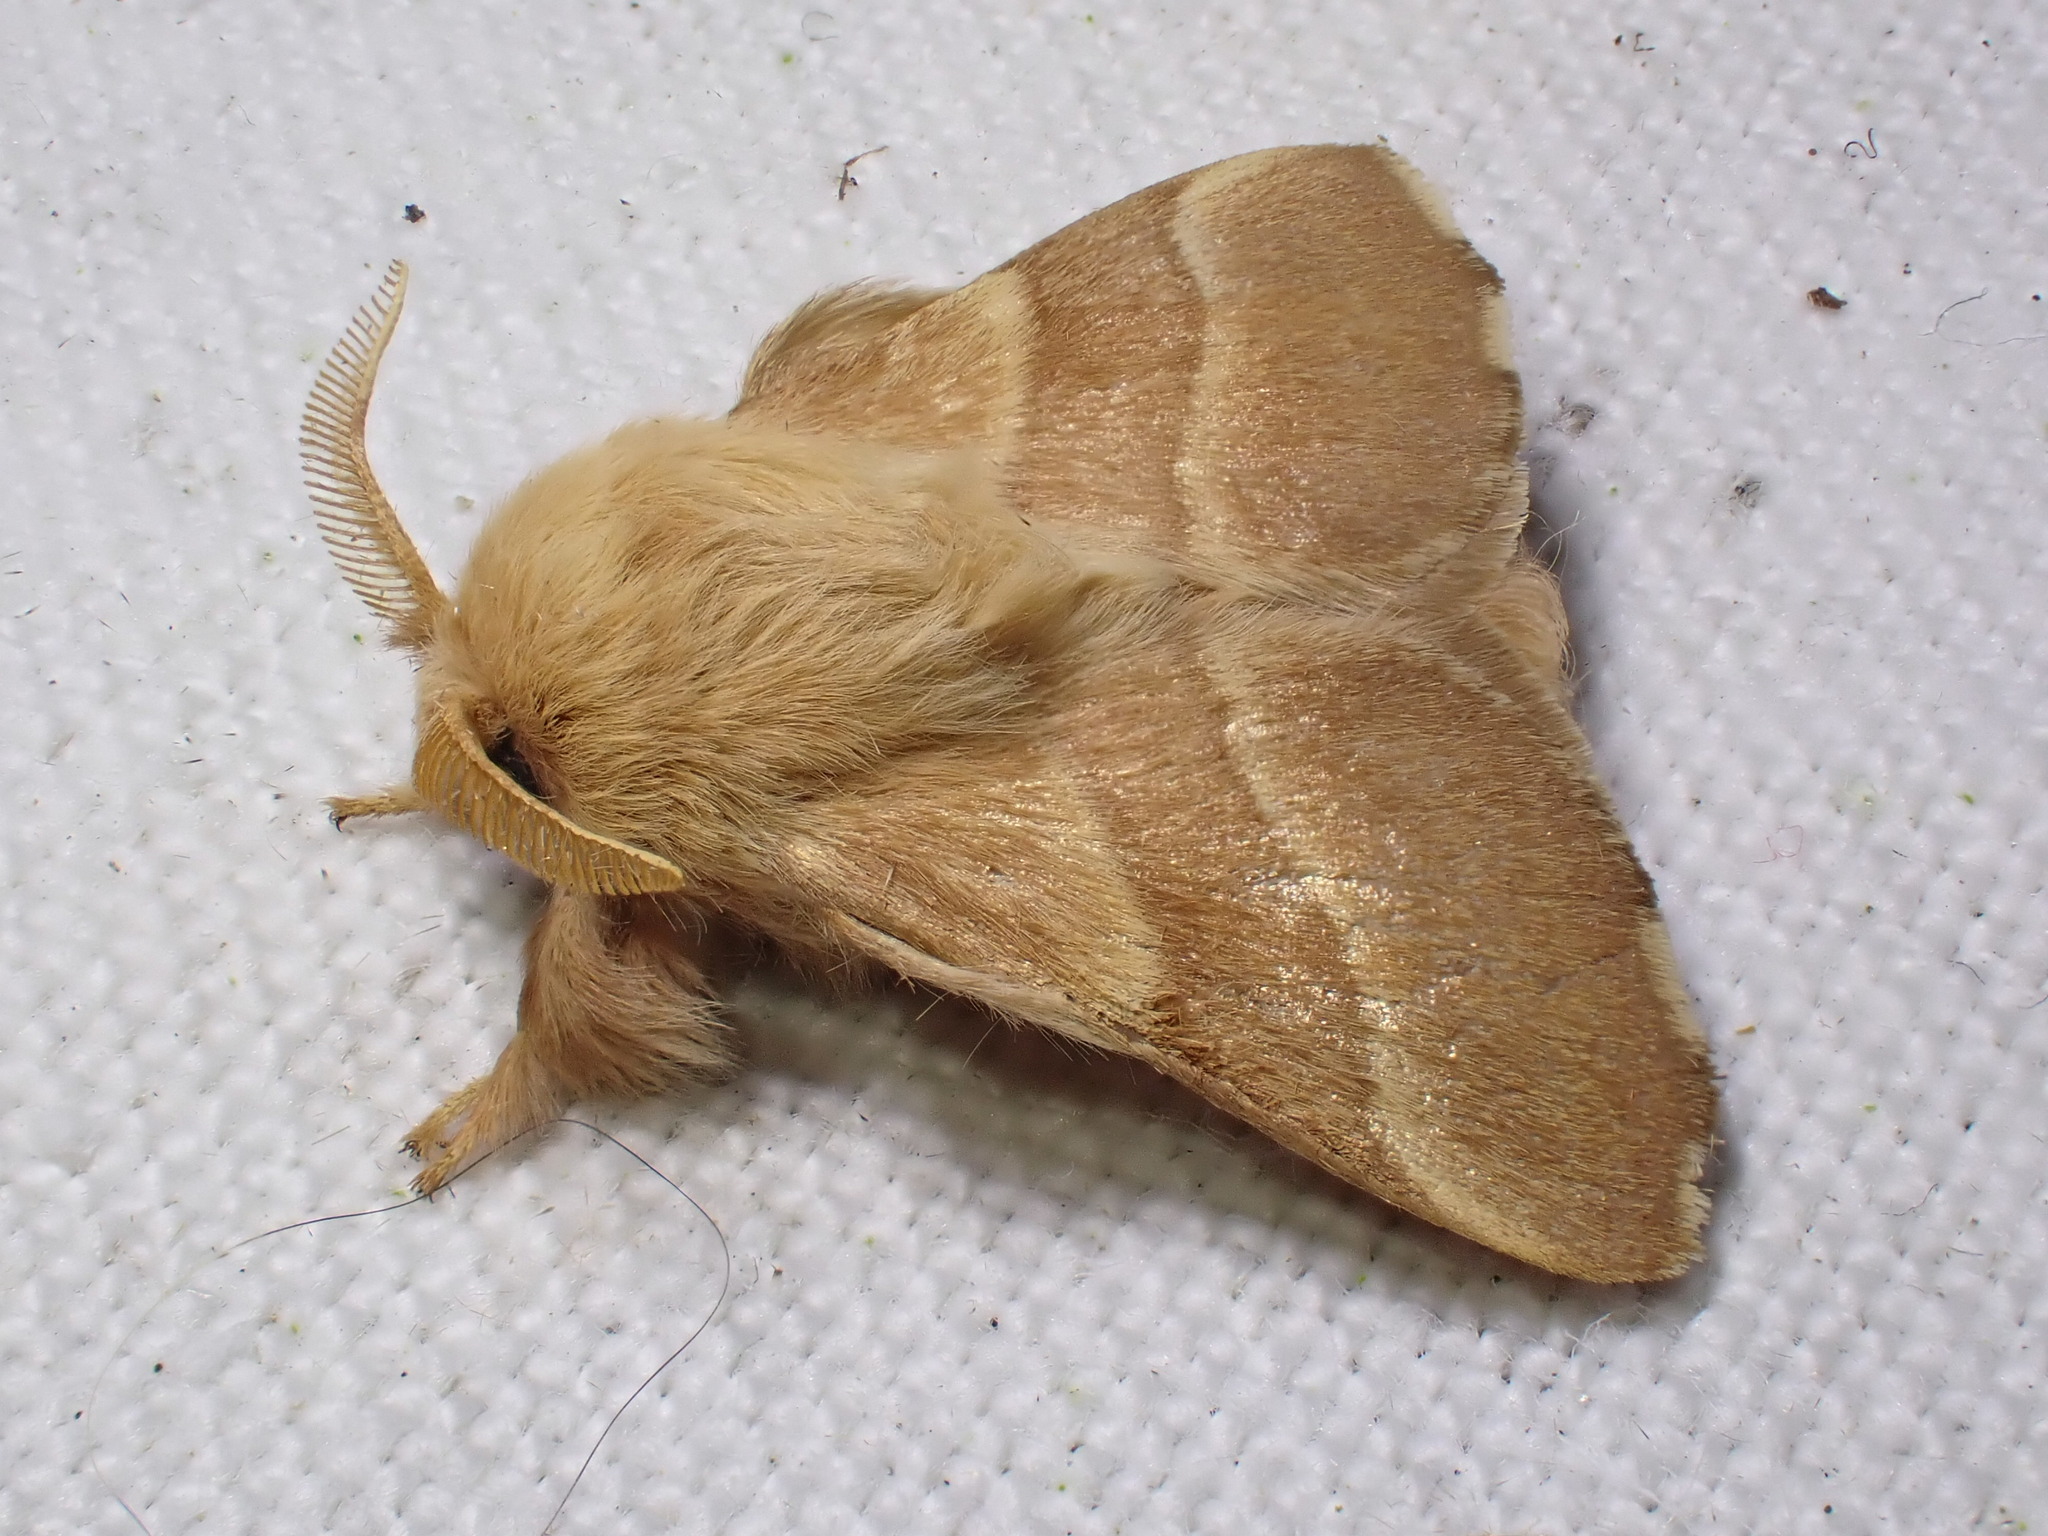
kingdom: Animalia
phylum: Arthropoda
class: Insecta
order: Lepidoptera
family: Lasiocampidae
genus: Malacosoma
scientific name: Malacosoma neustria
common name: The lackey
